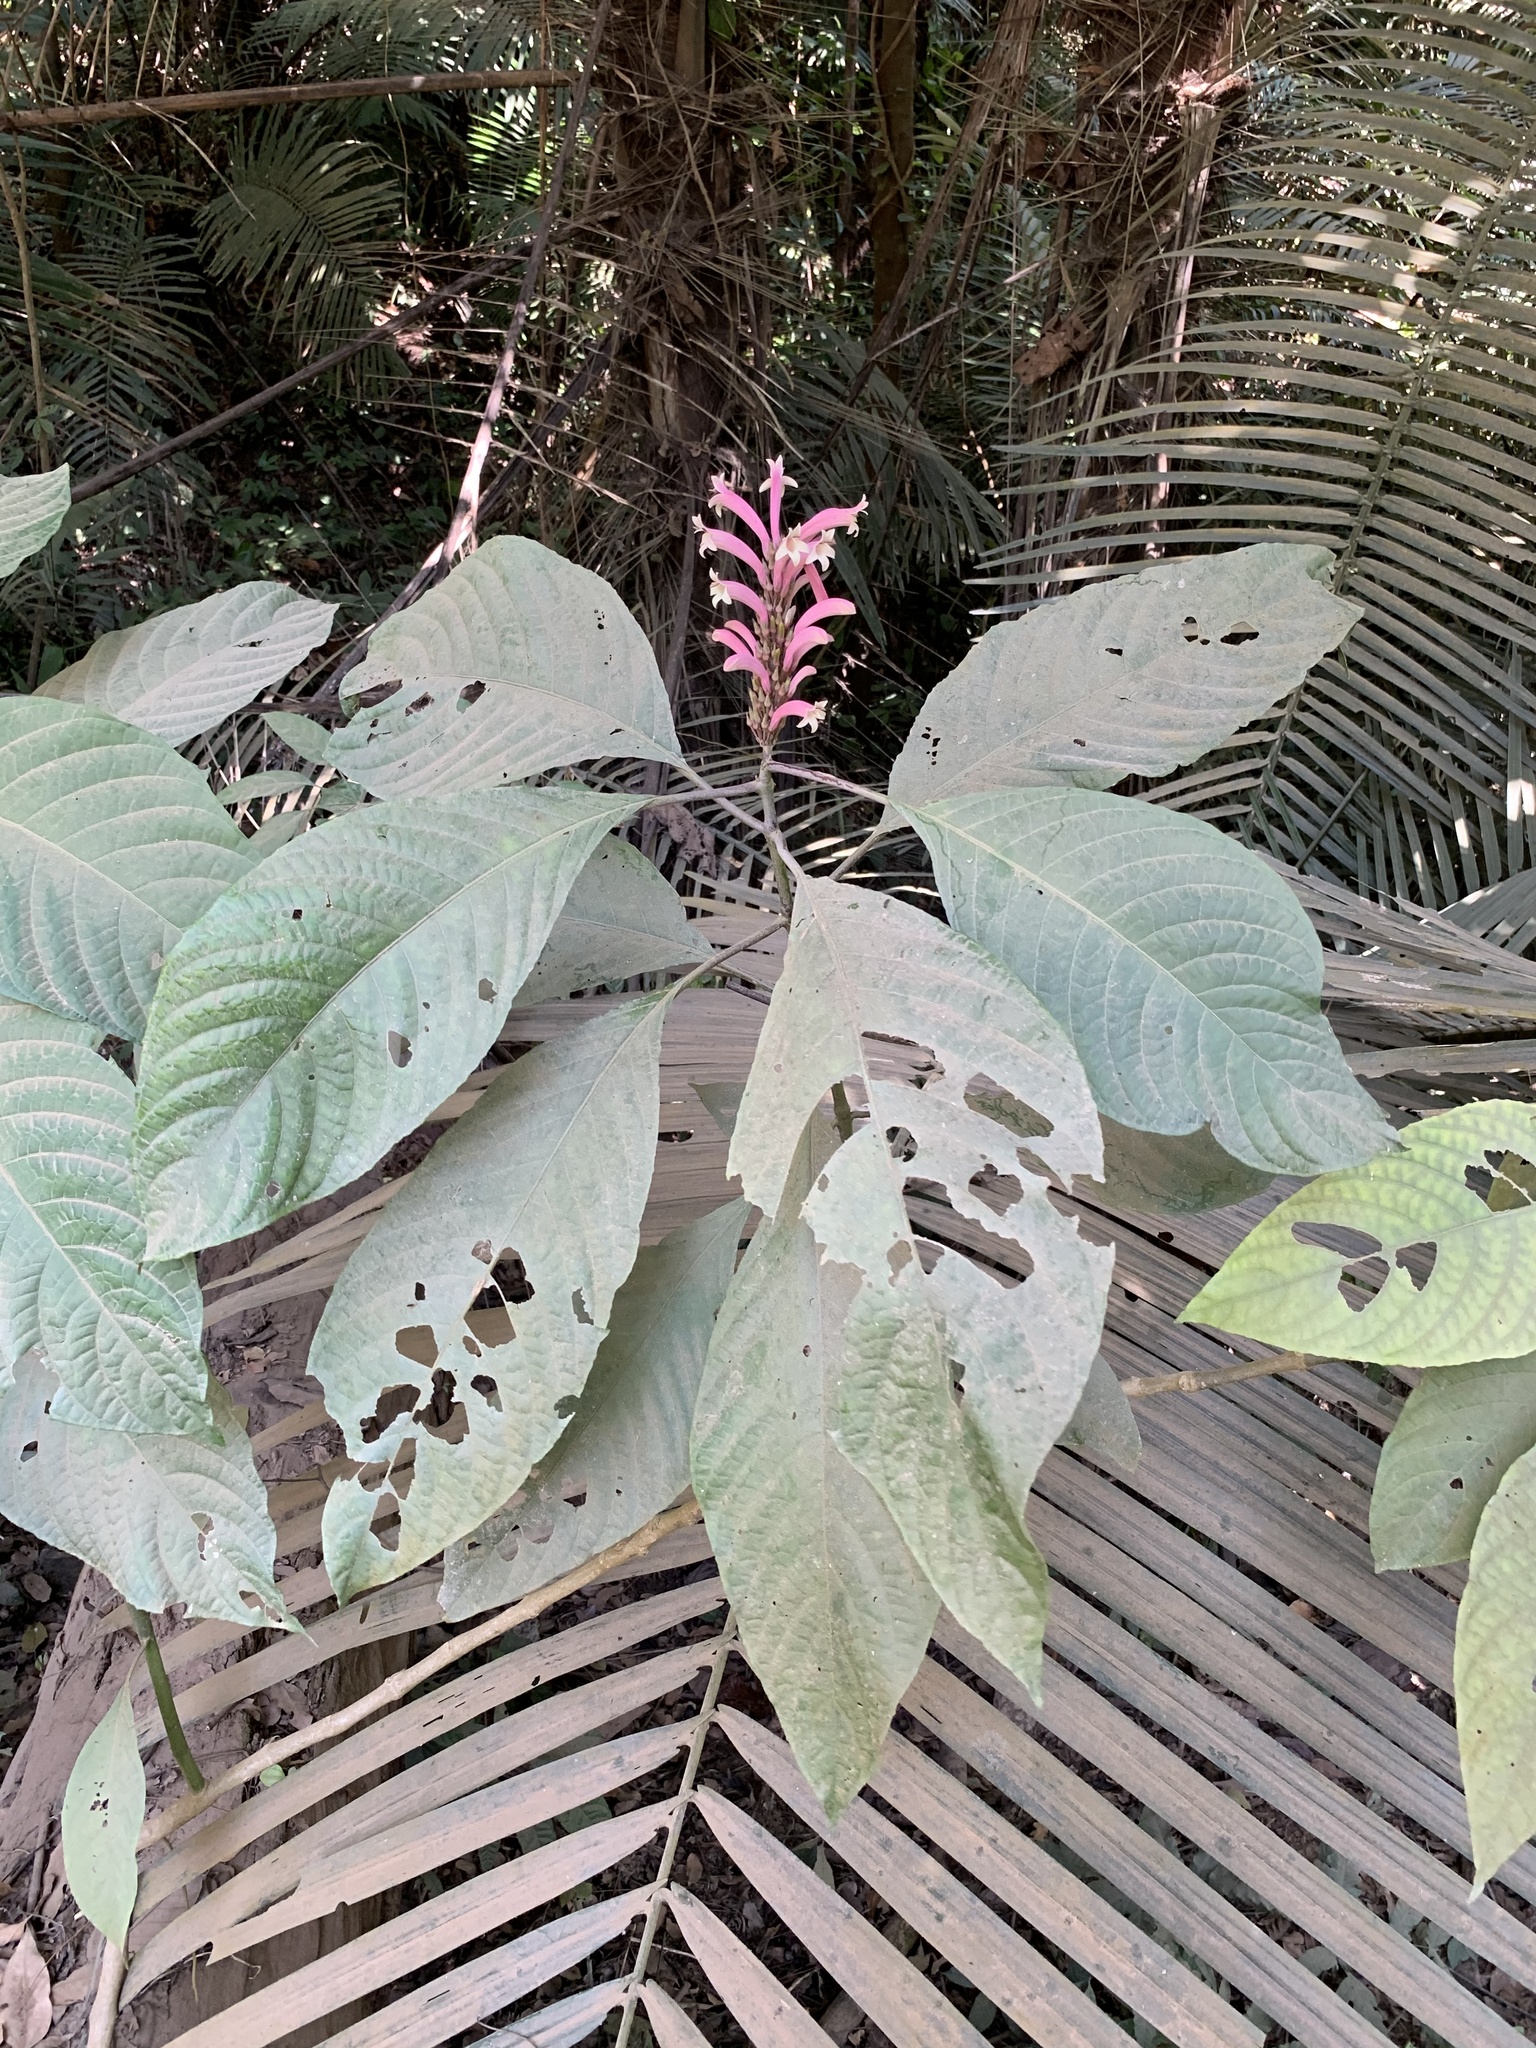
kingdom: Plantae
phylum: Tracheophyta
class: Magnoliopsida
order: Lamiales
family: Acanthaceae
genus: Phlogacanthus
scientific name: Phlogacanthus curviflorus
